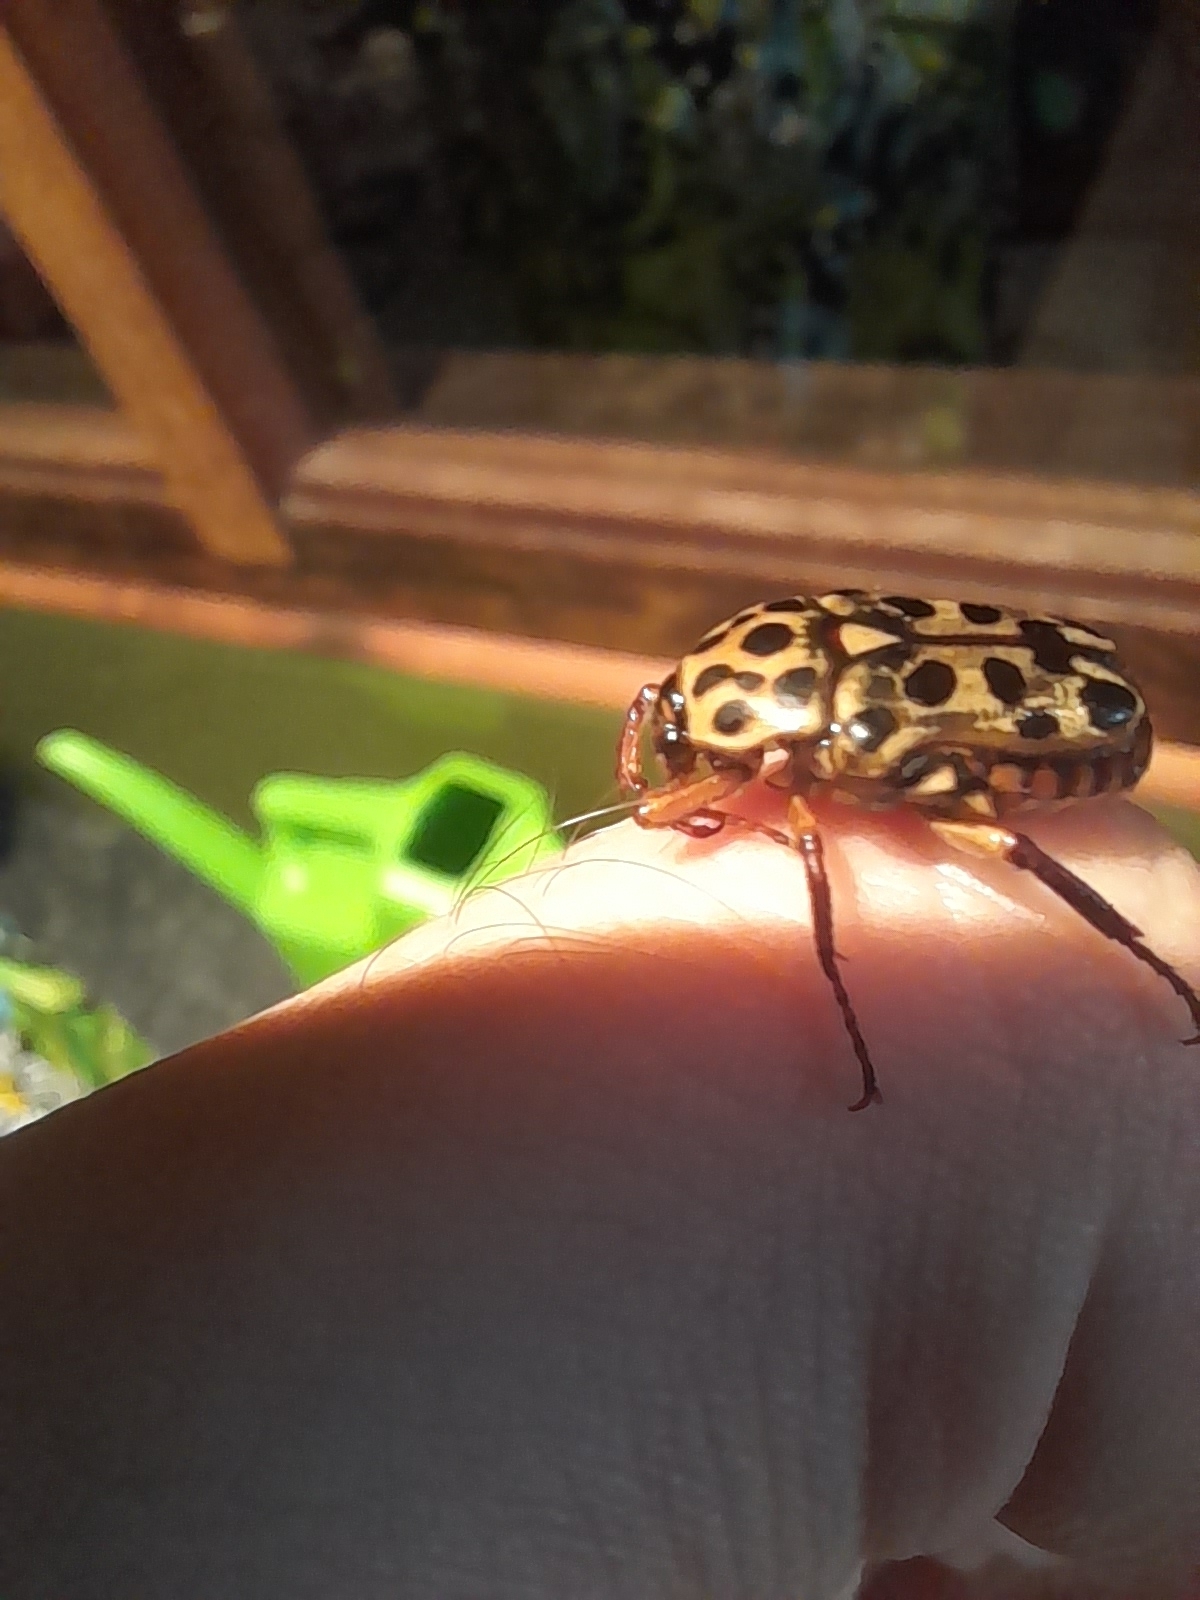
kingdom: Animalia
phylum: Arthropoda
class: Insecta
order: Coleoptera
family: Scarabaeidae
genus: Neorrhina
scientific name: Neorrhina punctatum
